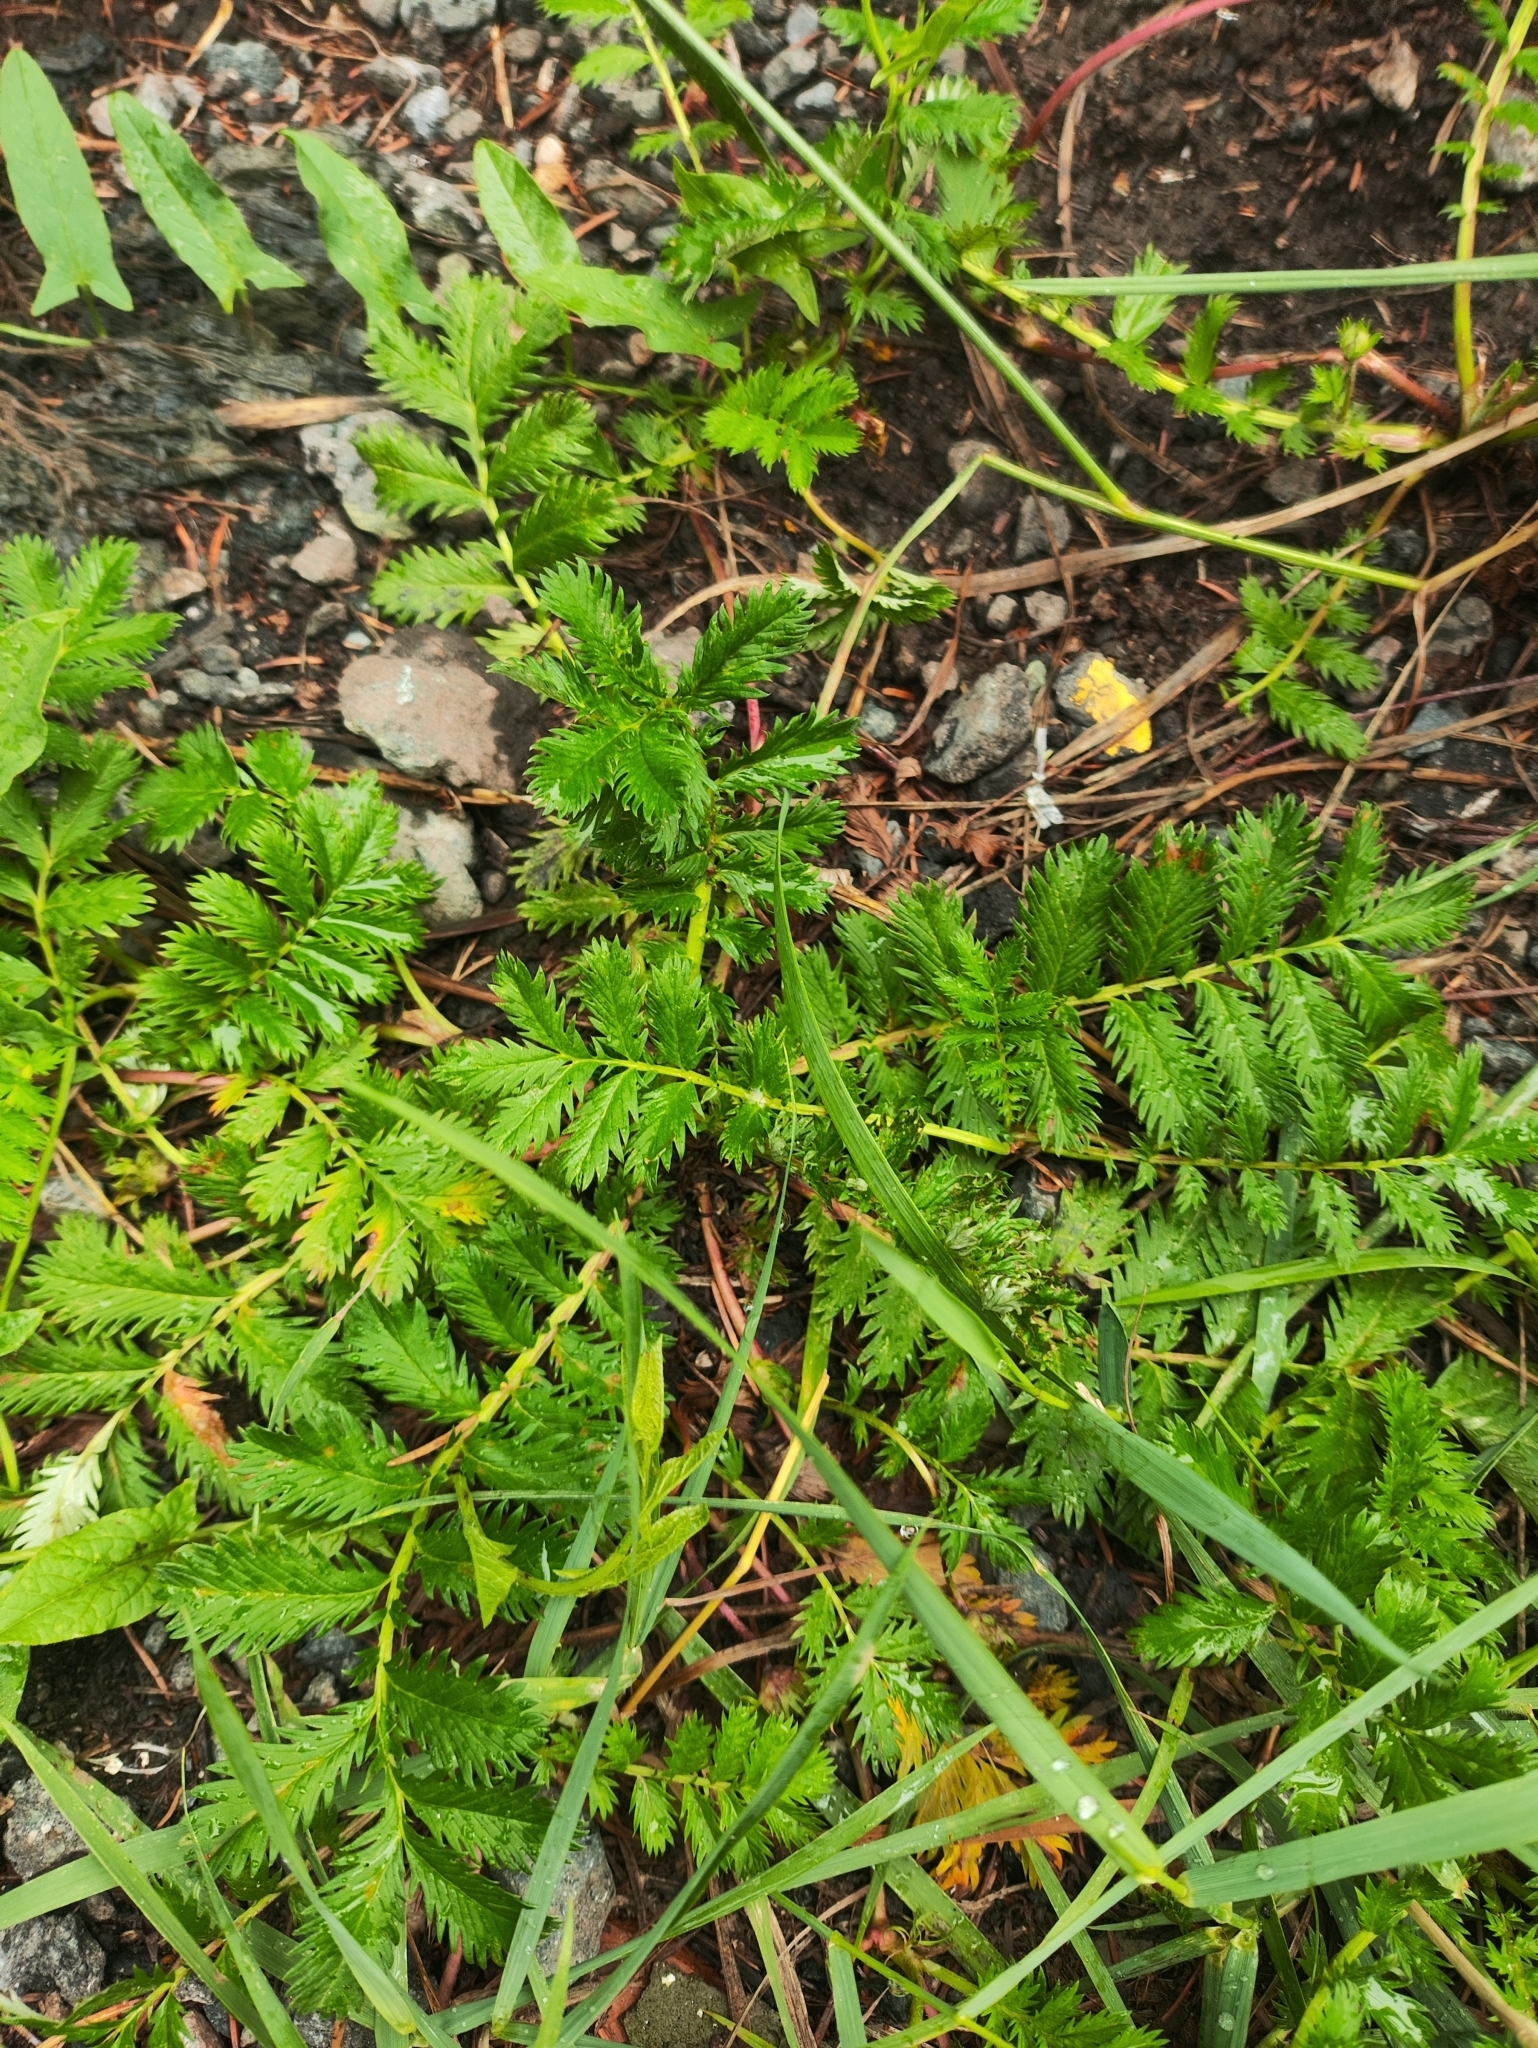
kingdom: Plantae
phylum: Tracheophyta
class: Magnoliopsida
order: Rosales
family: Rosaceae
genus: Argentina
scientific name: Argentina anserina
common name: Common silverweed
